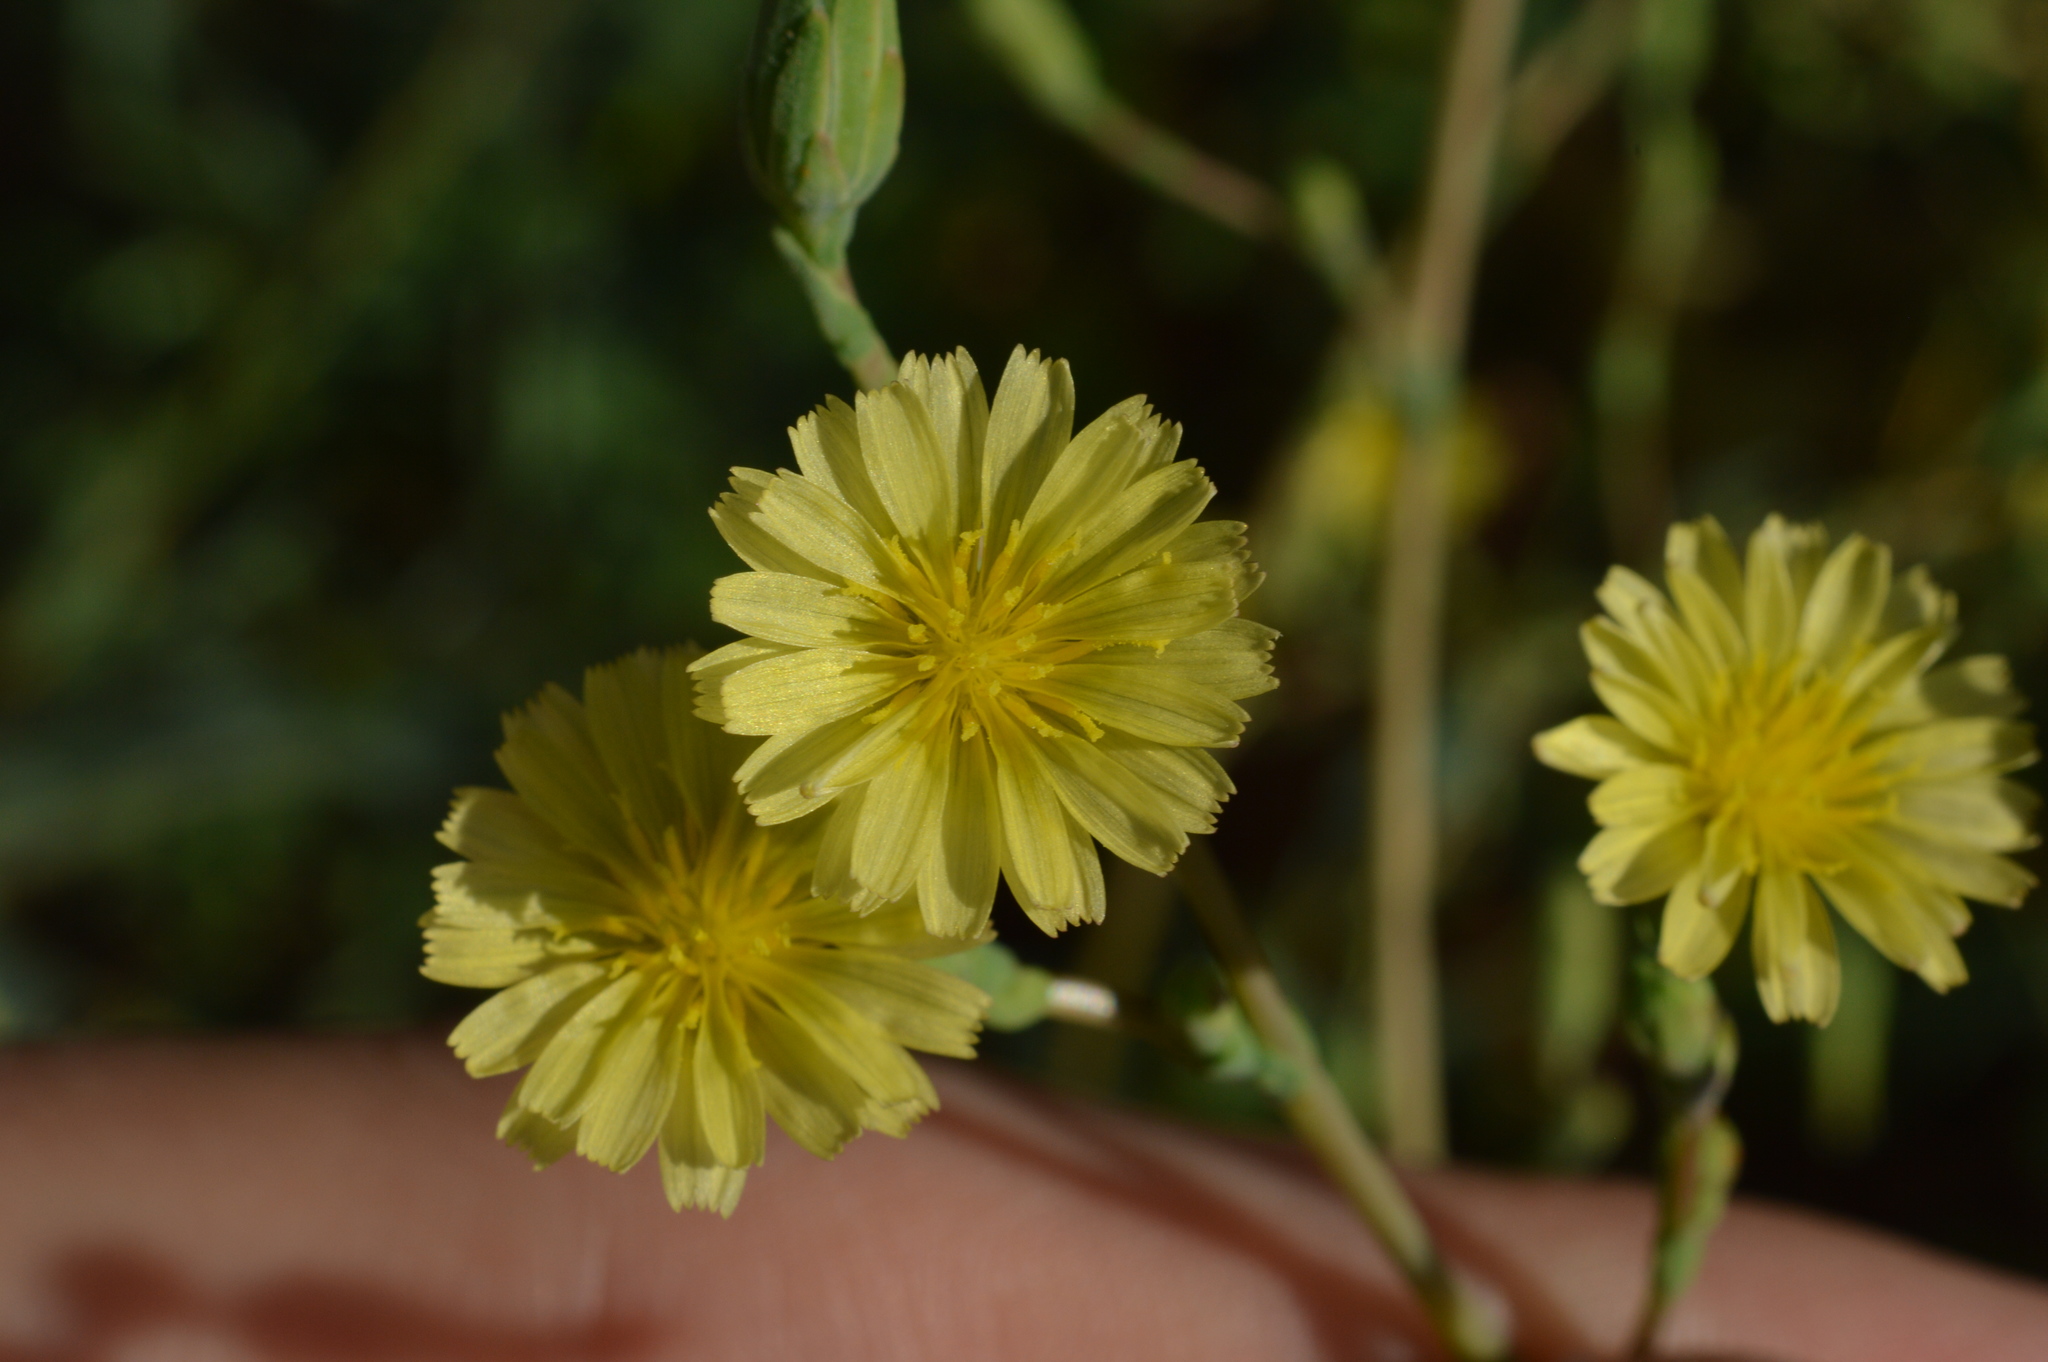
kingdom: Plantae
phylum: Tracheophyta
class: Magnoliopsida
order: Asterales
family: Asteraceae
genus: Lactuca
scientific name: Lactuca serriola
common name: Prickly lettuce
